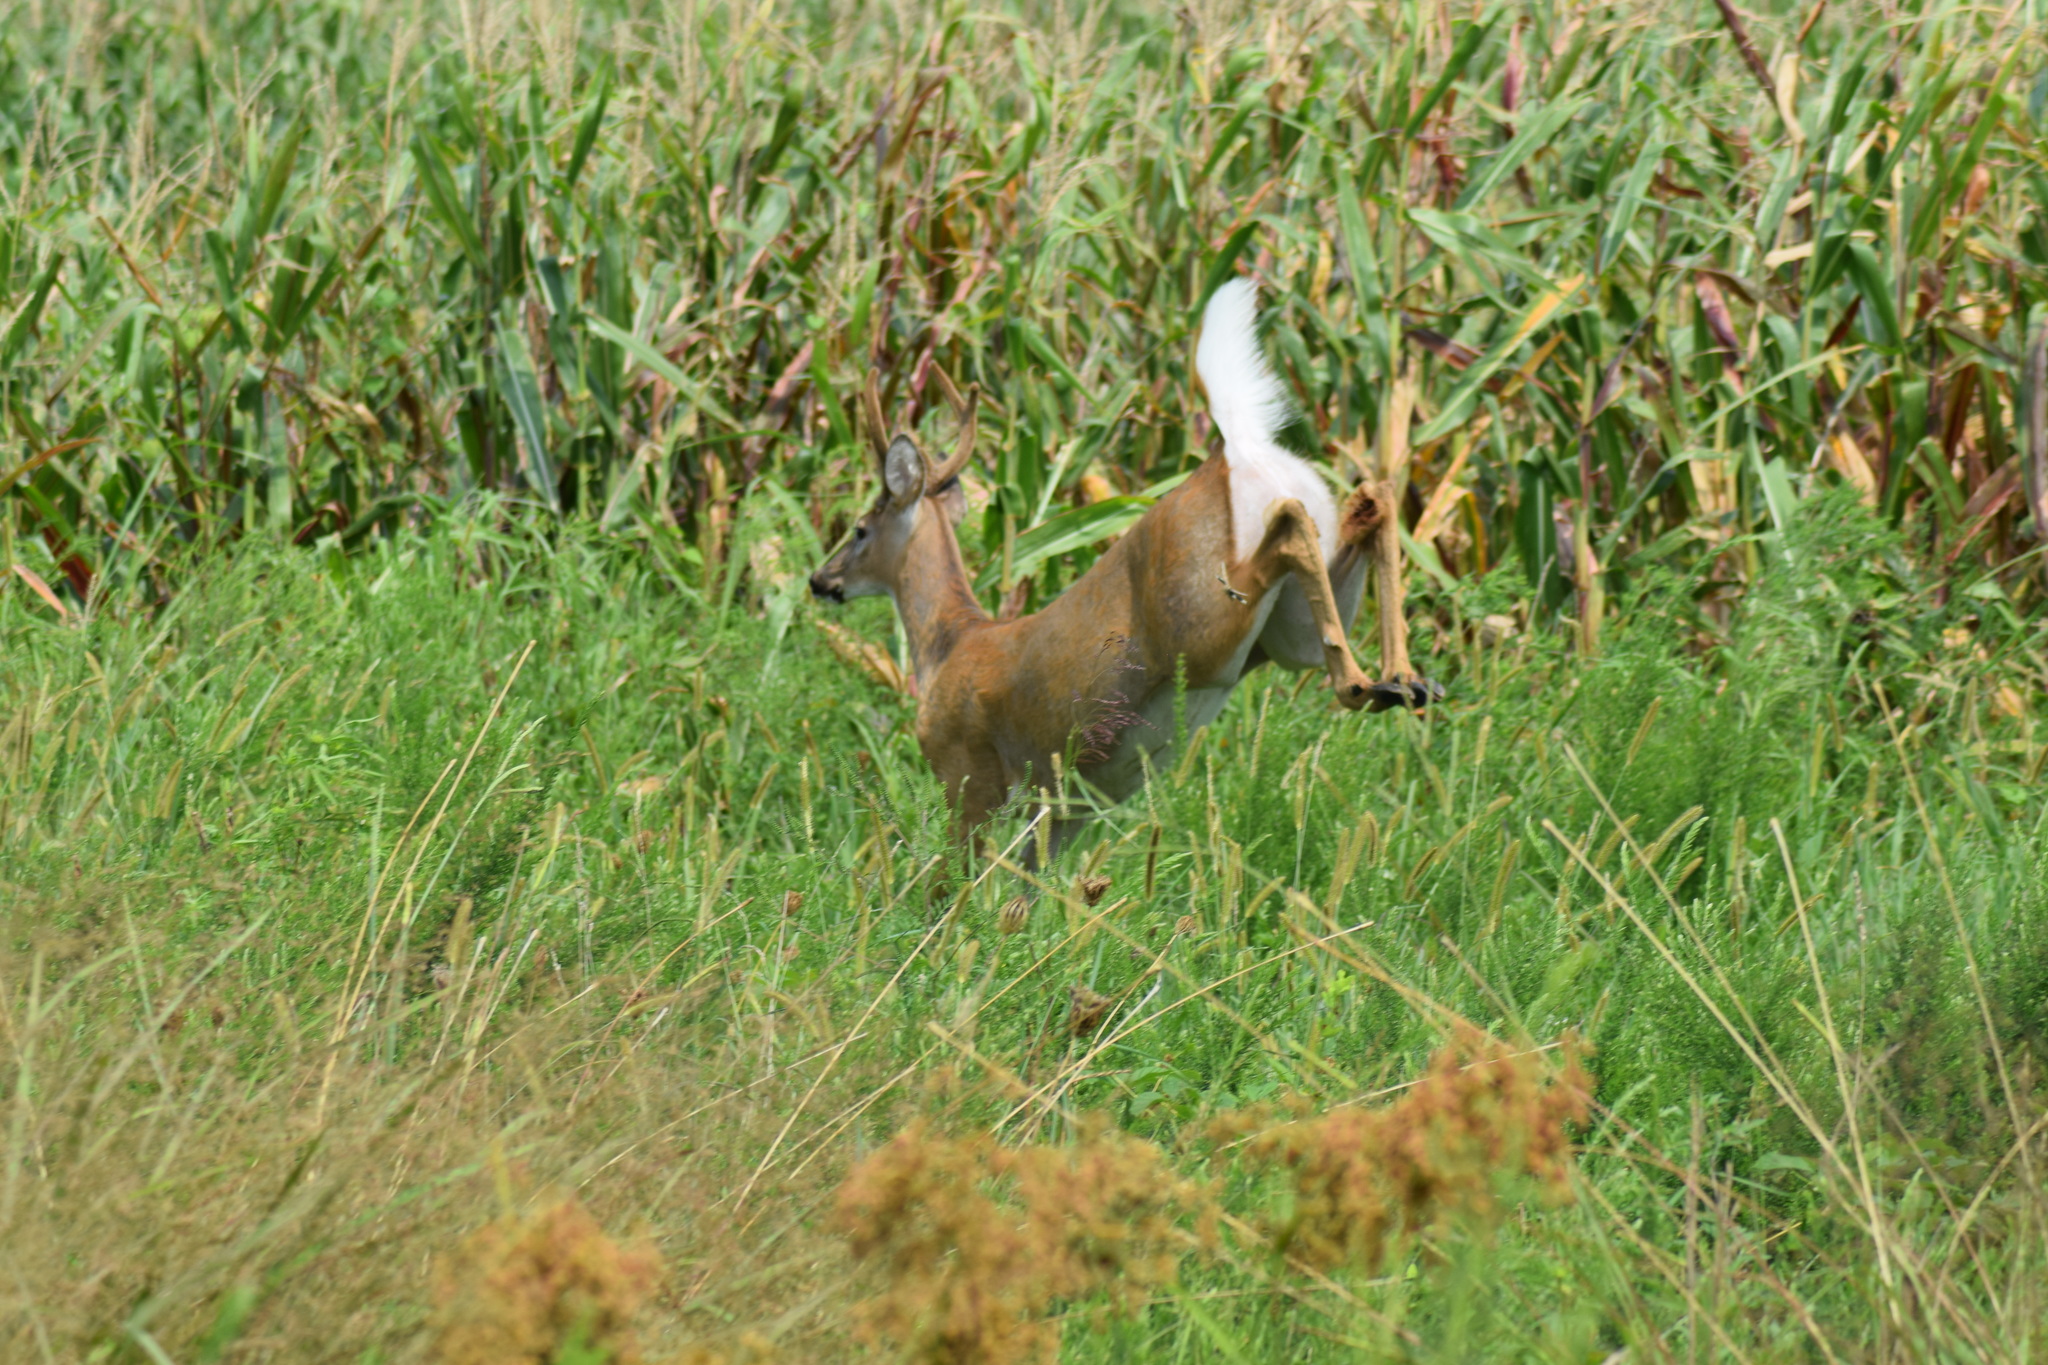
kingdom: Animalia
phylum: Chordata
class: Mammalia
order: Artiodactyla
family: Cervidae
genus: Odocoileus
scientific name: Odocoileus virginianus
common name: White-tailed deer
